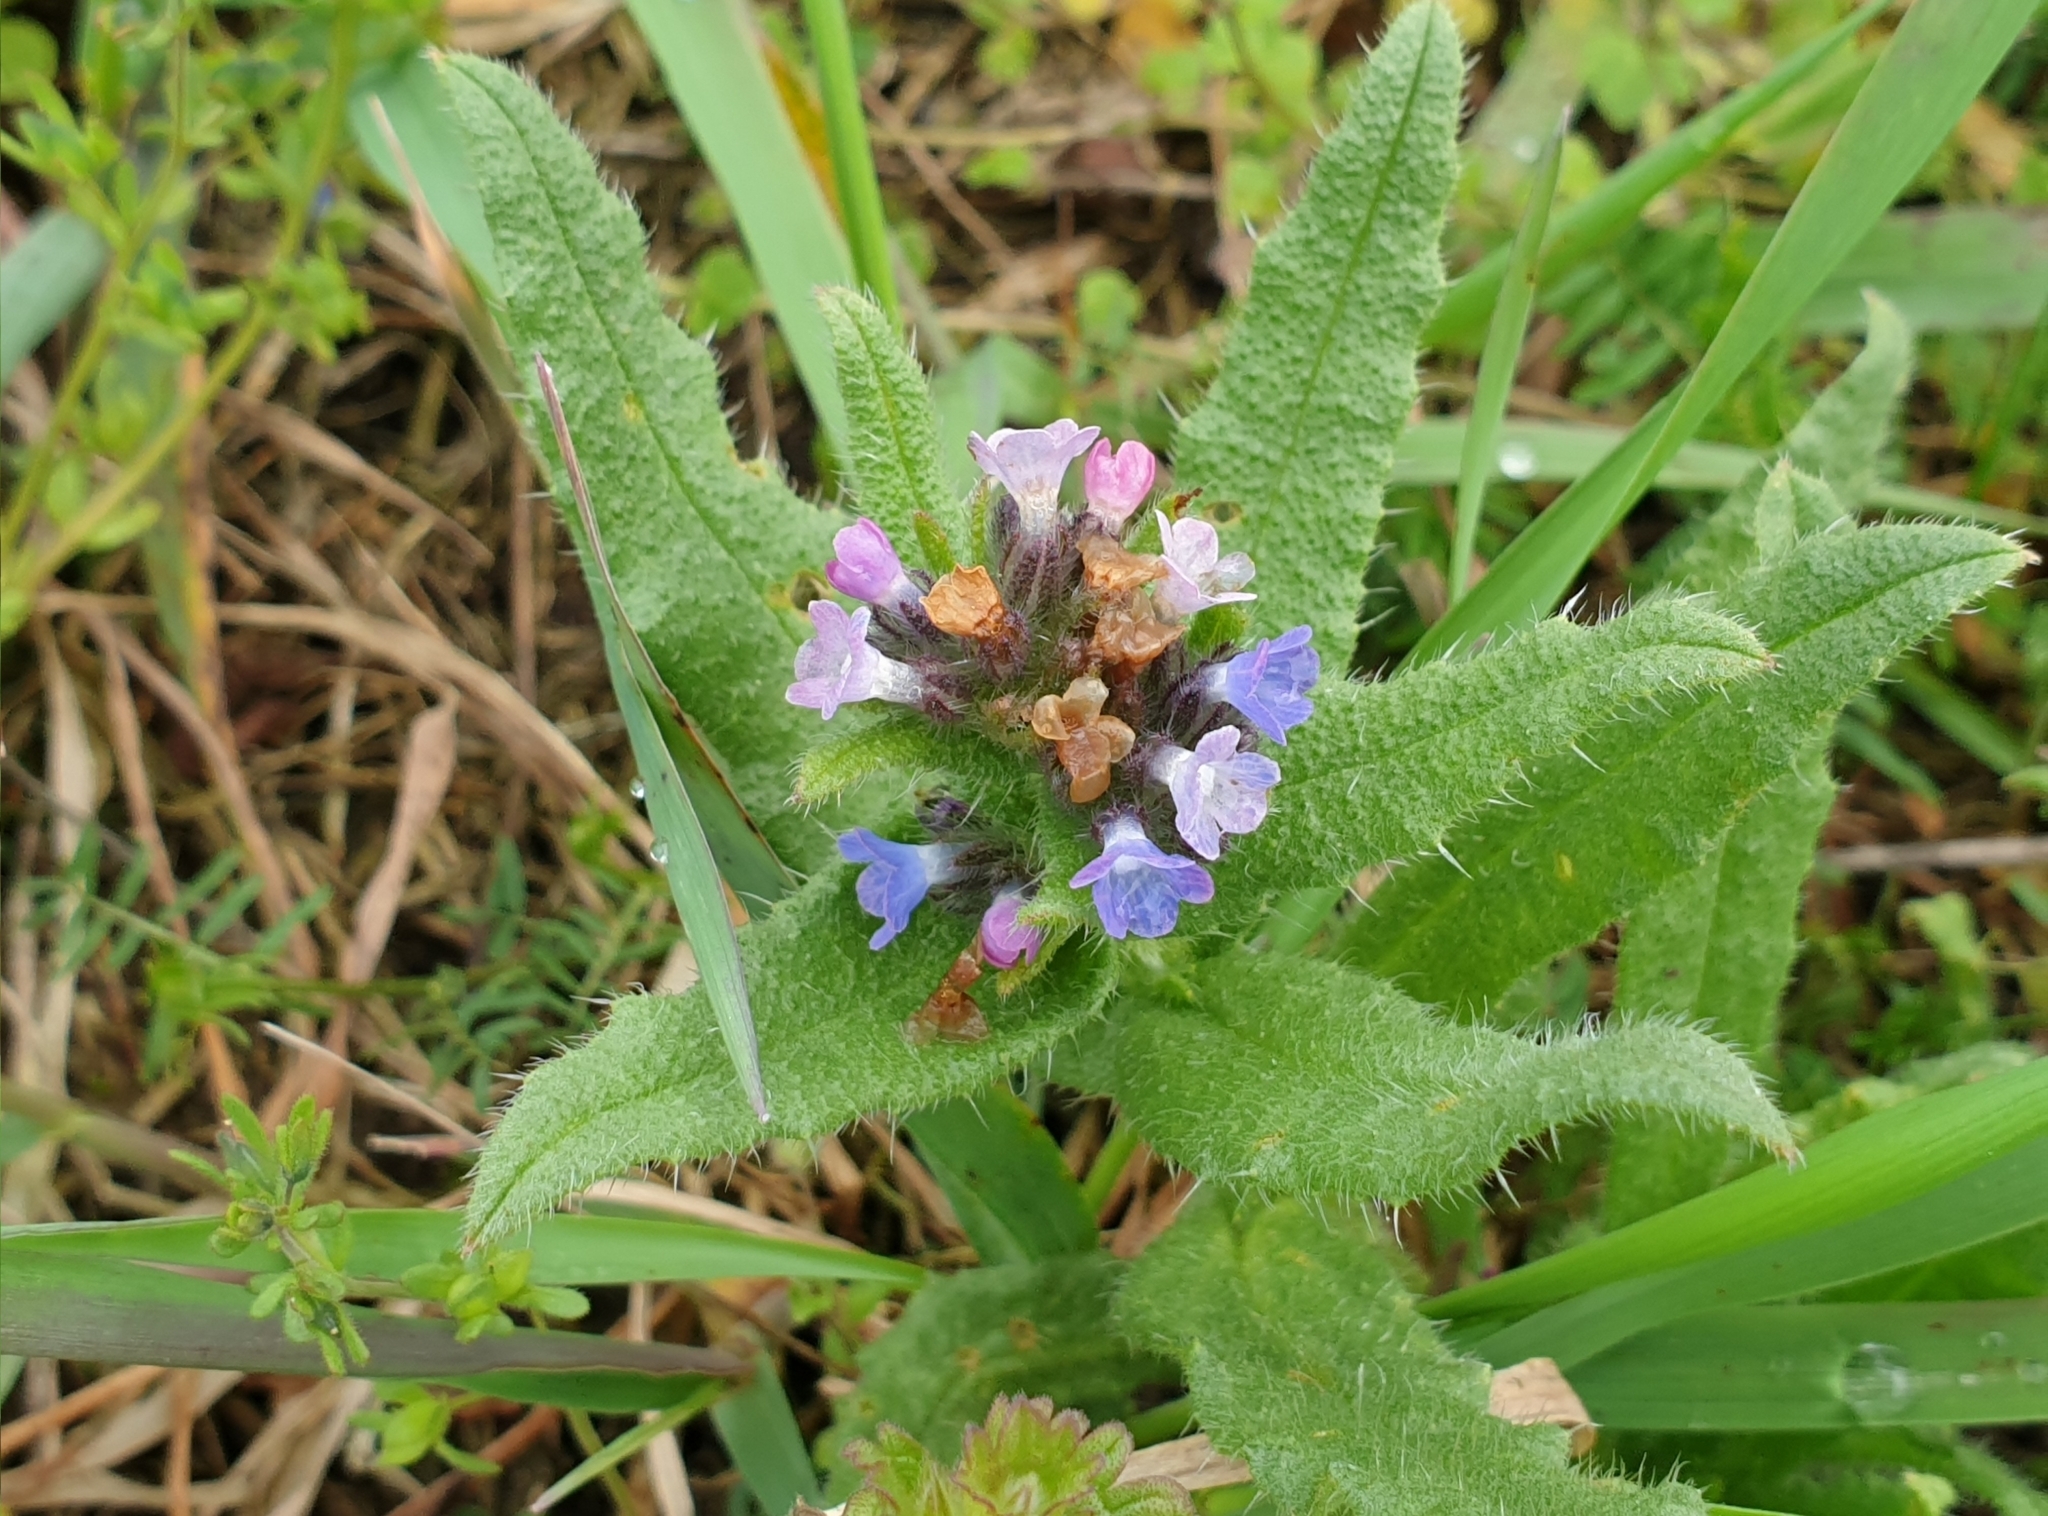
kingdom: Plantae
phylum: Tracheophyta
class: Magnoliopsida
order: Boraginales
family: Boraginaceae
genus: Lycopsis
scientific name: Lycopsis arvensis
